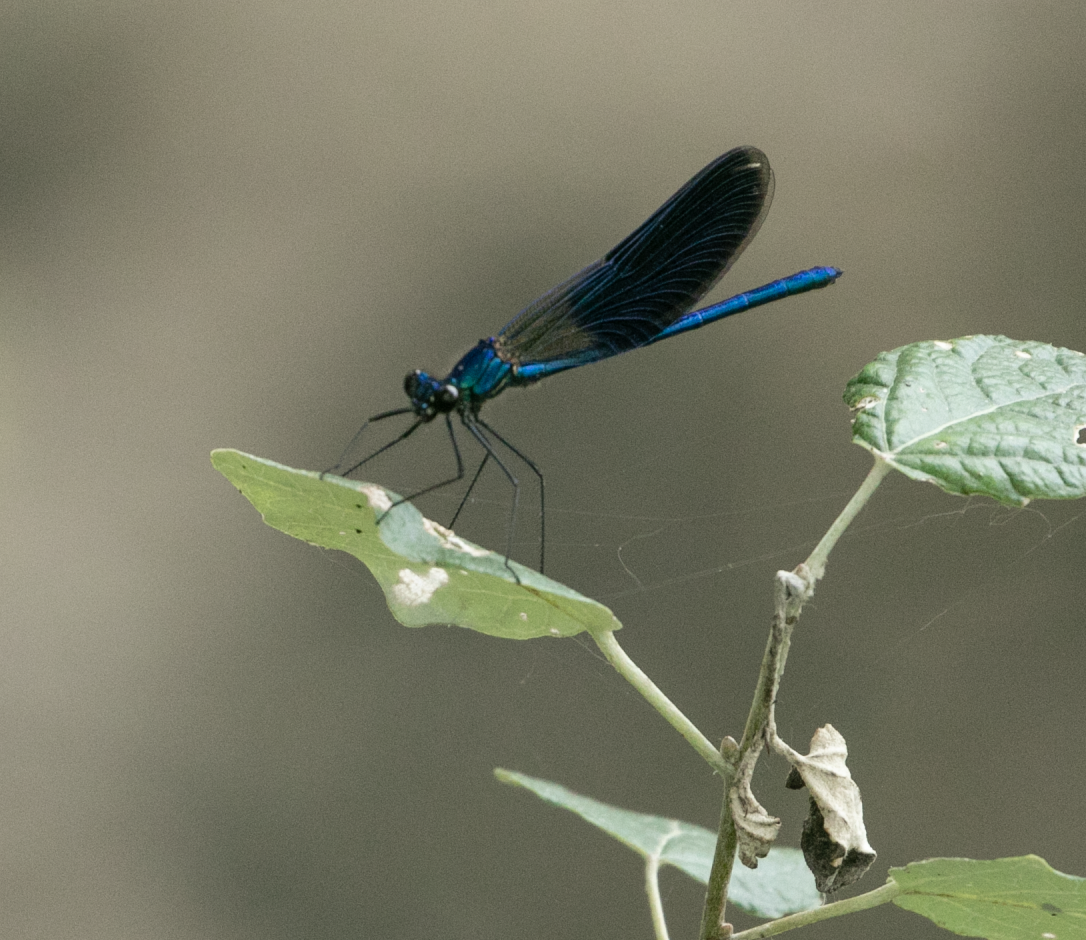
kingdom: Animalia
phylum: Arthropoda
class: Insecta
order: Odonata
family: Calopterygidae
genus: Calopteryx
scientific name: Calopteryx splendens
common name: Banded demoiselle
